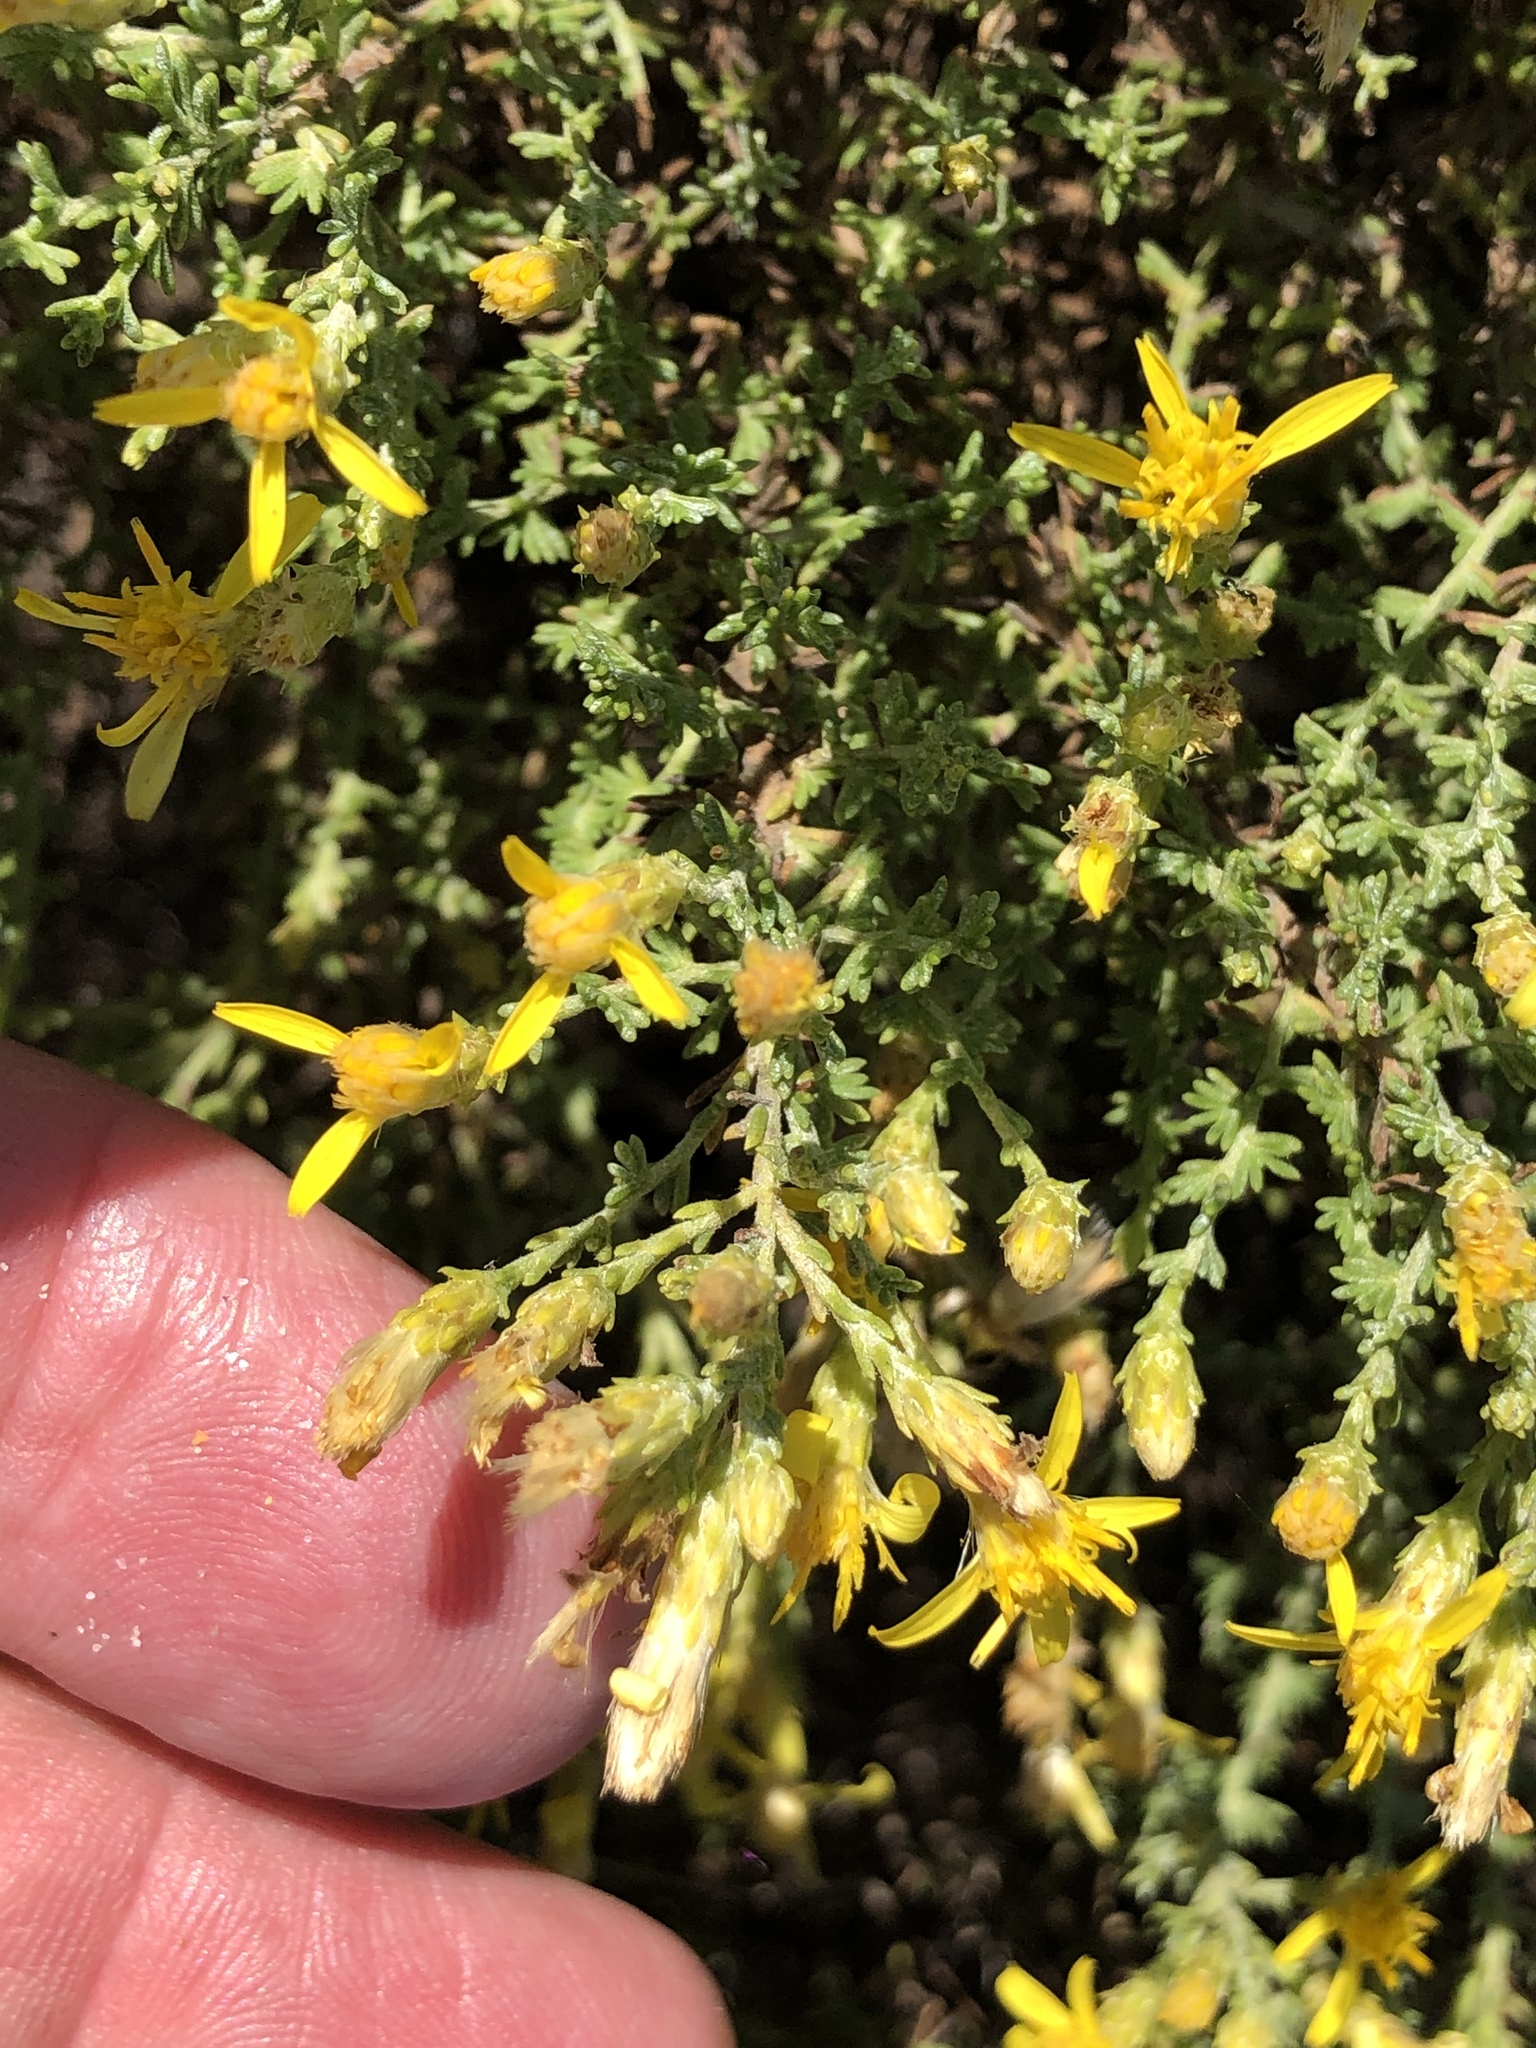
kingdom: Plantae
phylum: Tracheophyta
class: Magnoliopsida
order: Asterales
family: Asteraceae
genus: Ericameria
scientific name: Ericameria ericoides
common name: California goldenbush
